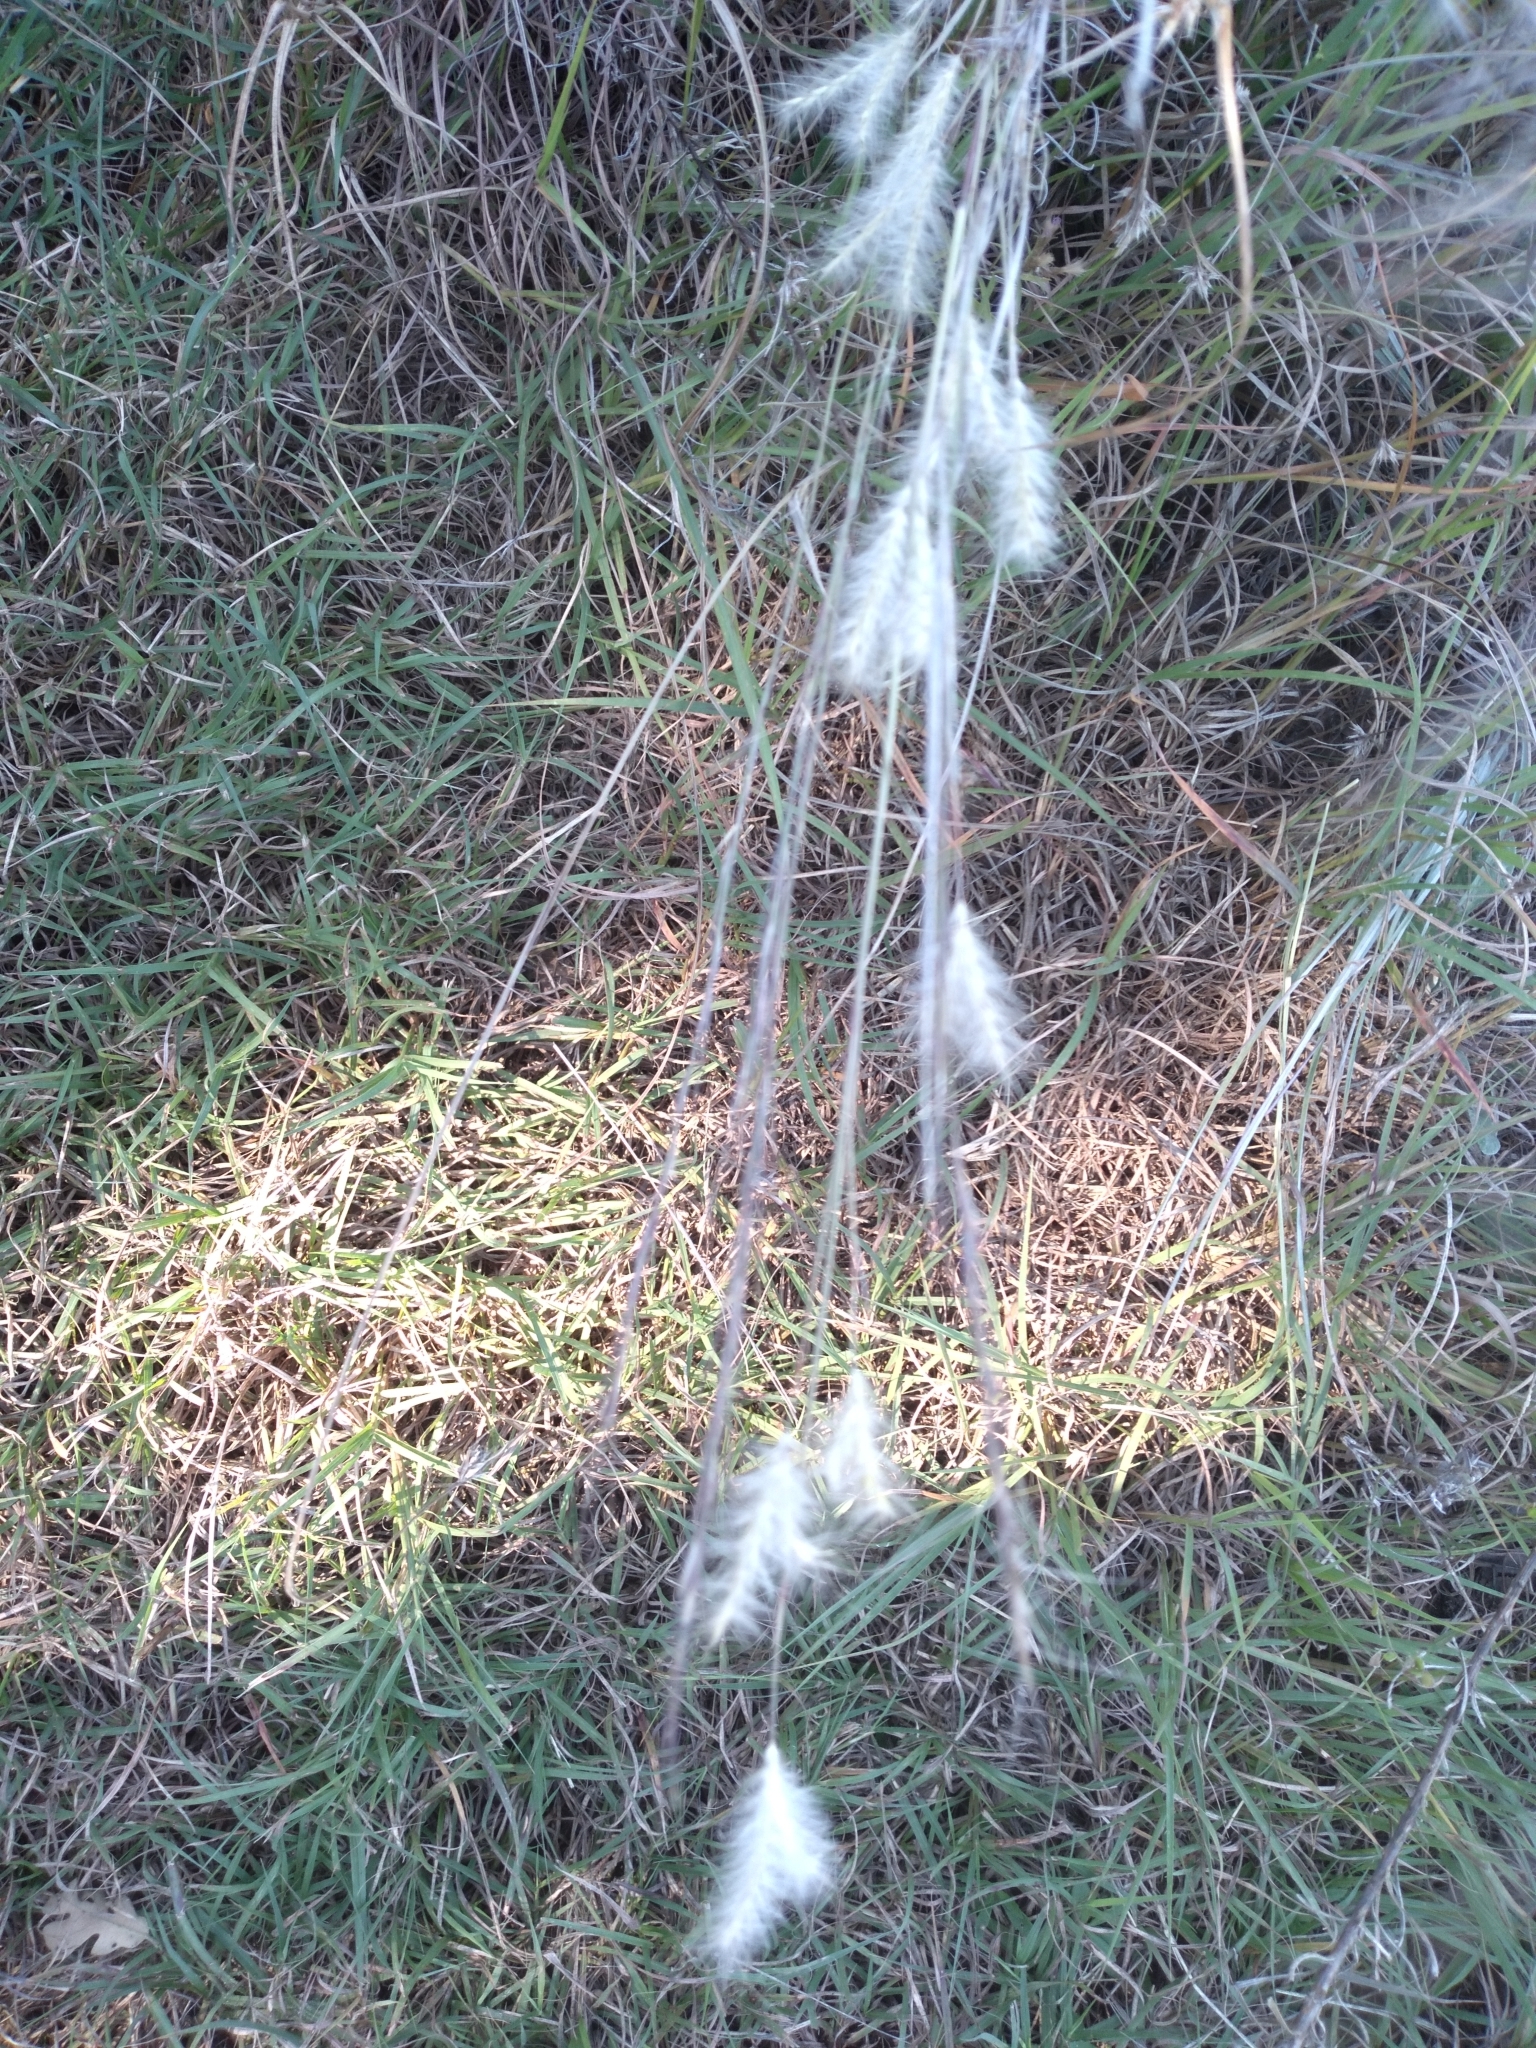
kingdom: Plantae
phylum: Tracheophyta
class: Liliopsida
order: Poales
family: Poaceae
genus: Andropogon
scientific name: Andropogon ternarius
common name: Split bluestem
